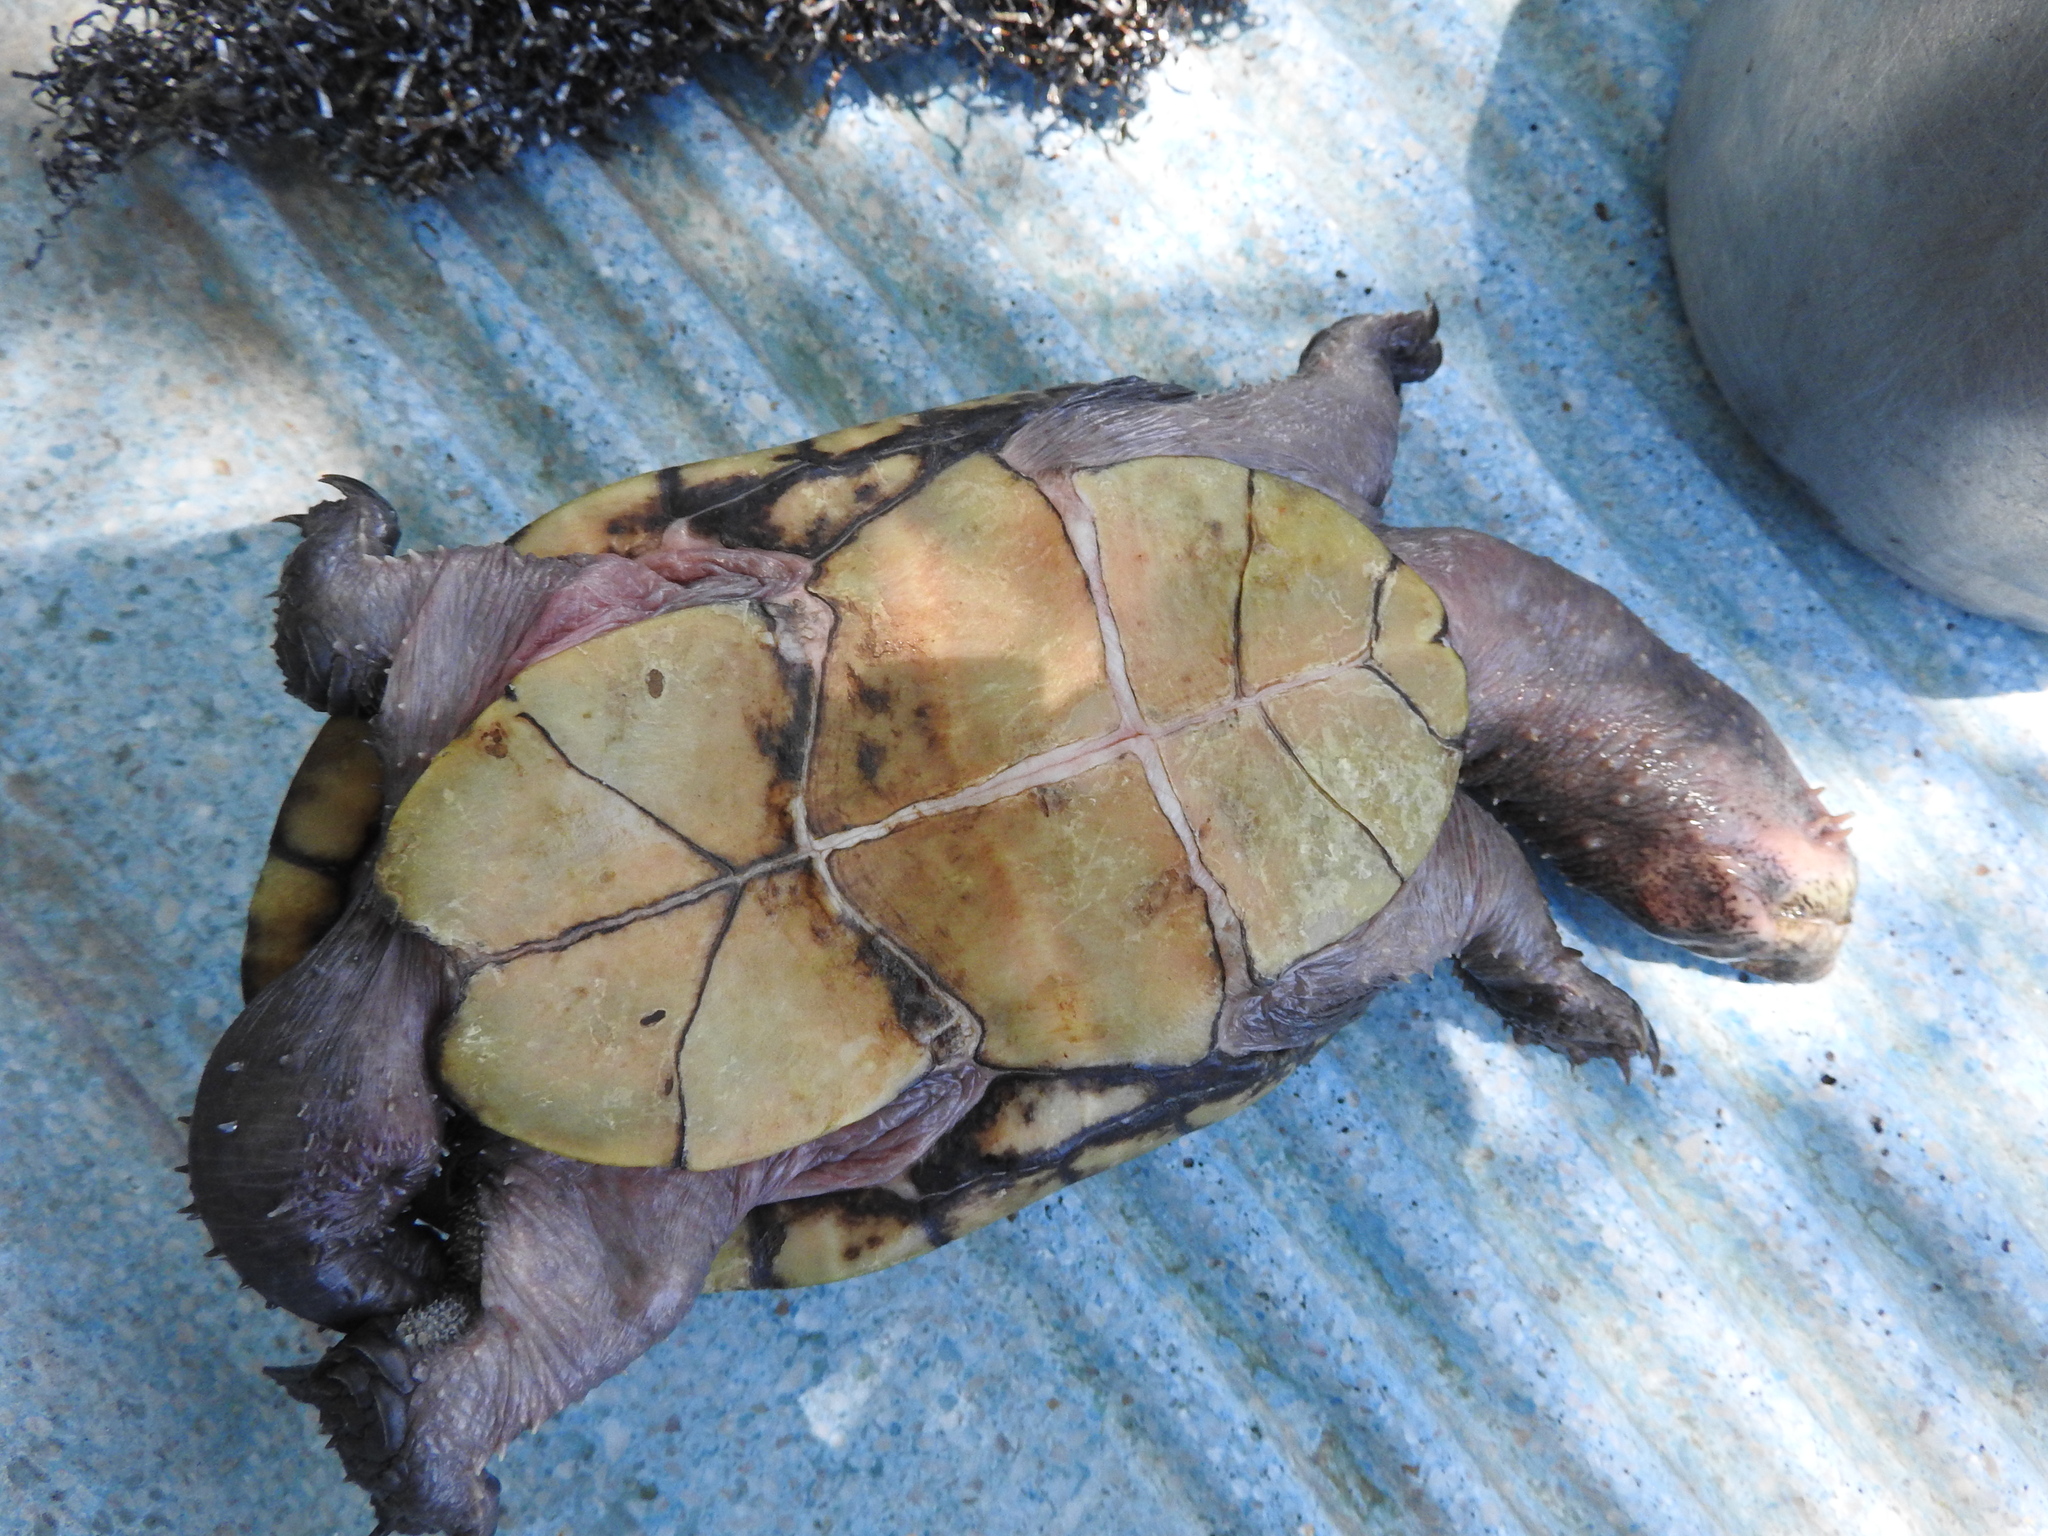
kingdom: Animalia
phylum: Chordata
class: Testudines
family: Kinosternidae
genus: Kinosternon
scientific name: Kinosternon hirtipes
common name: Rough-footed mud turtle
